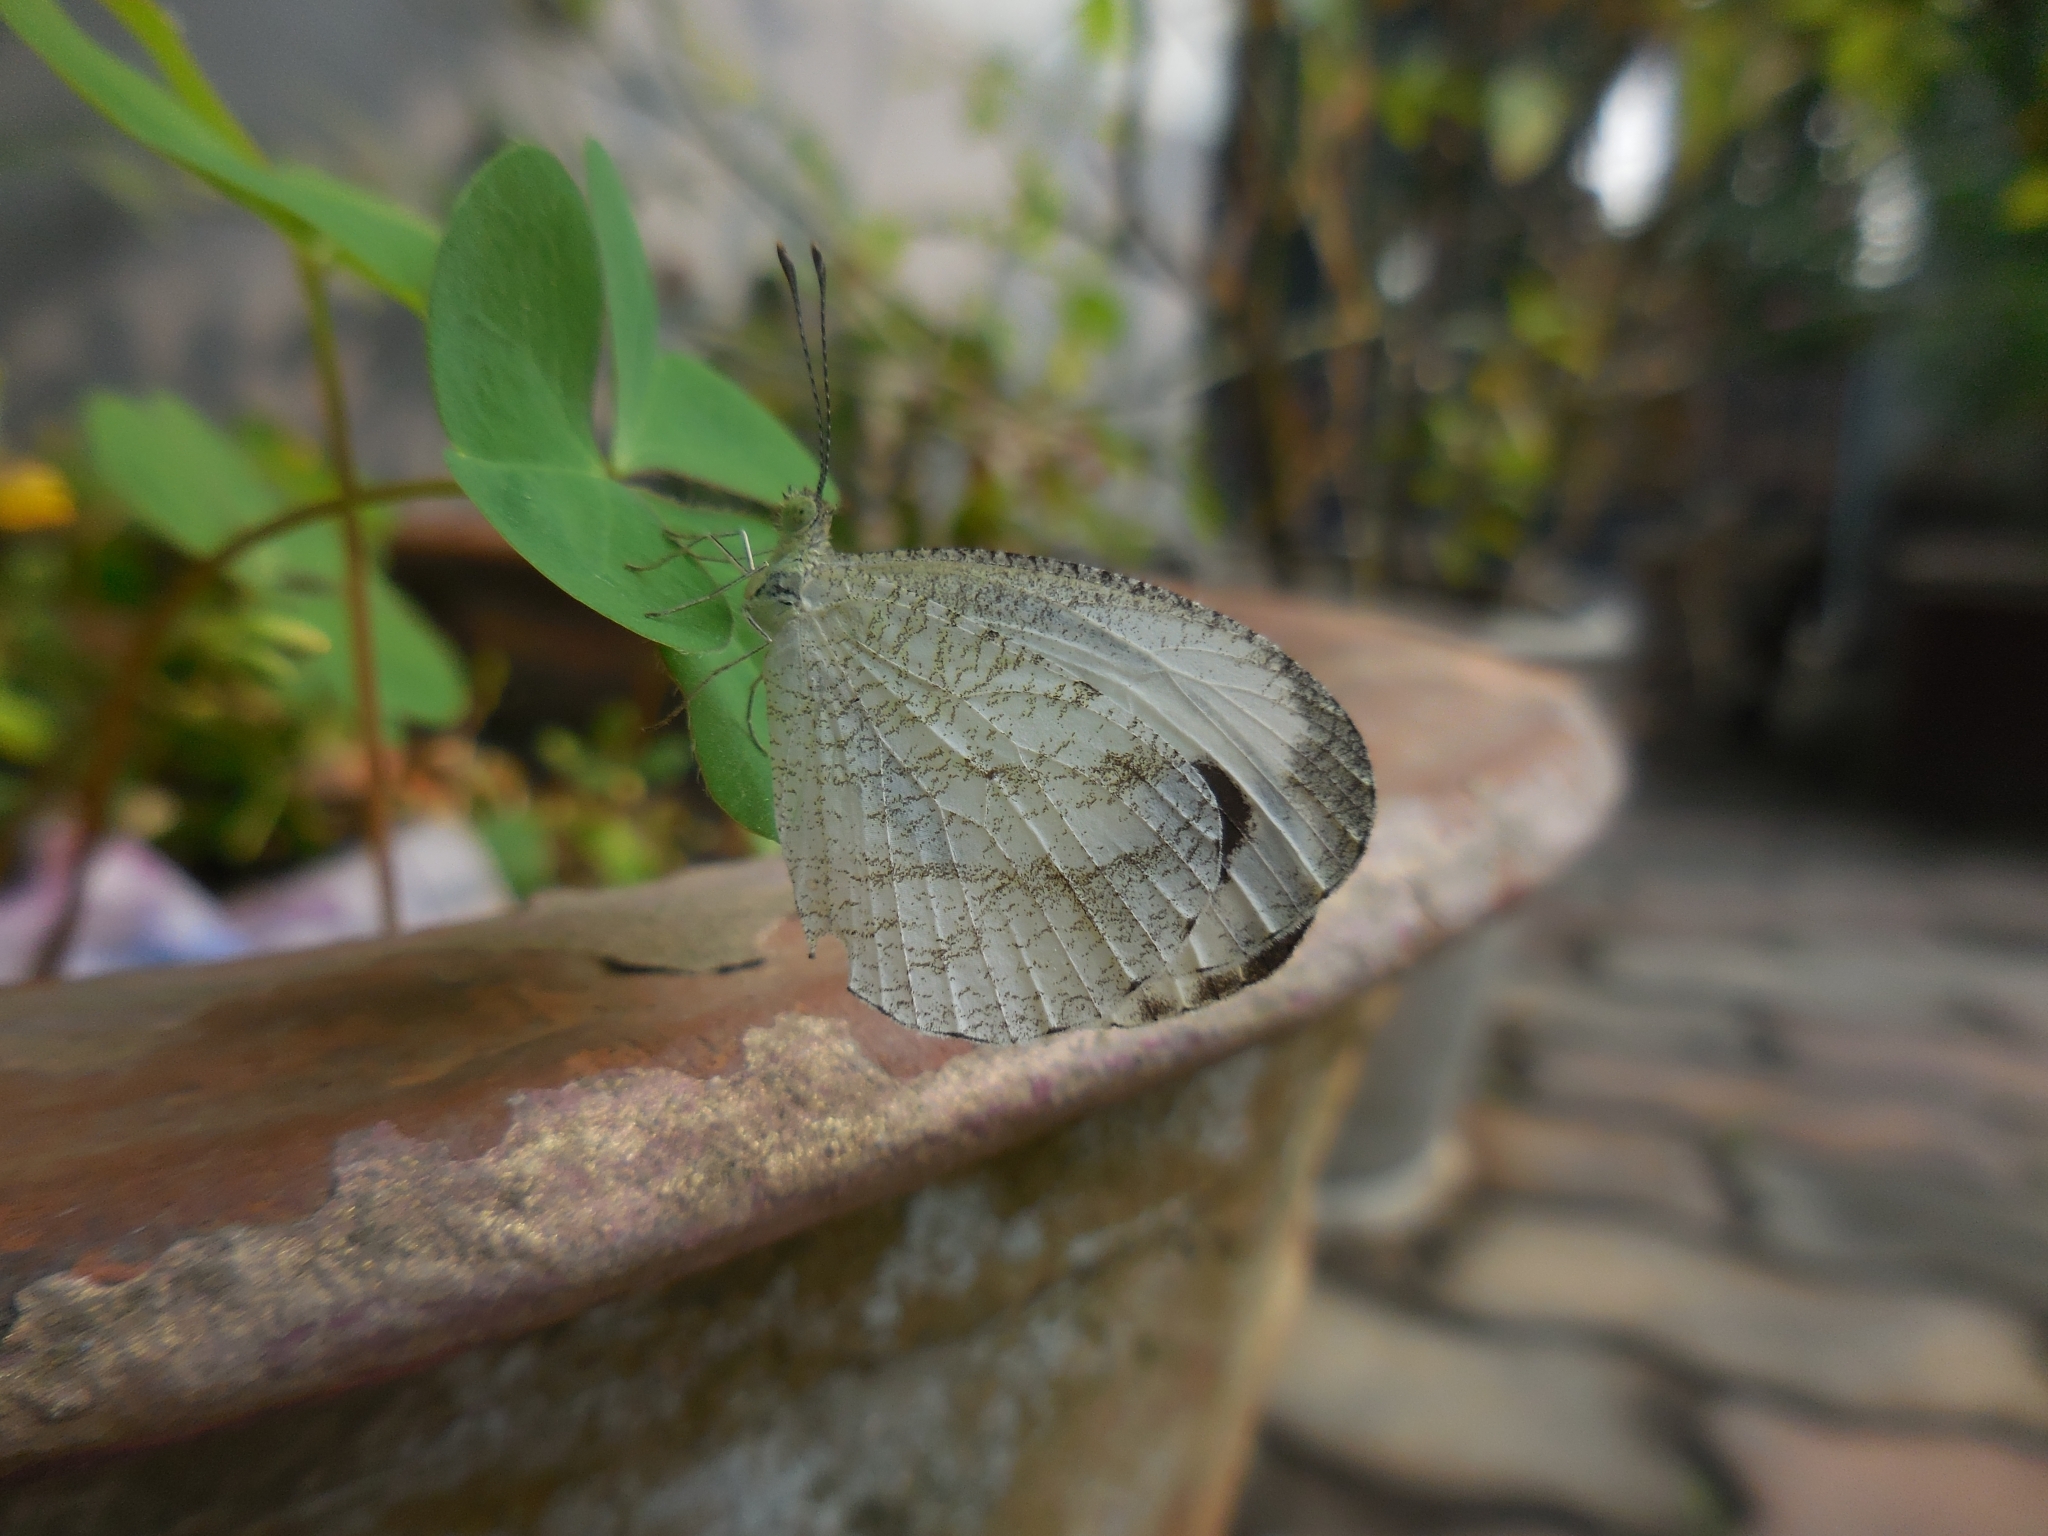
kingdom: Animalia
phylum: Arthropoda
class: Insecta
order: Lepidoptera
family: Pieridae
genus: Leptosia
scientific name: Leptosia nina
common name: Psyche
